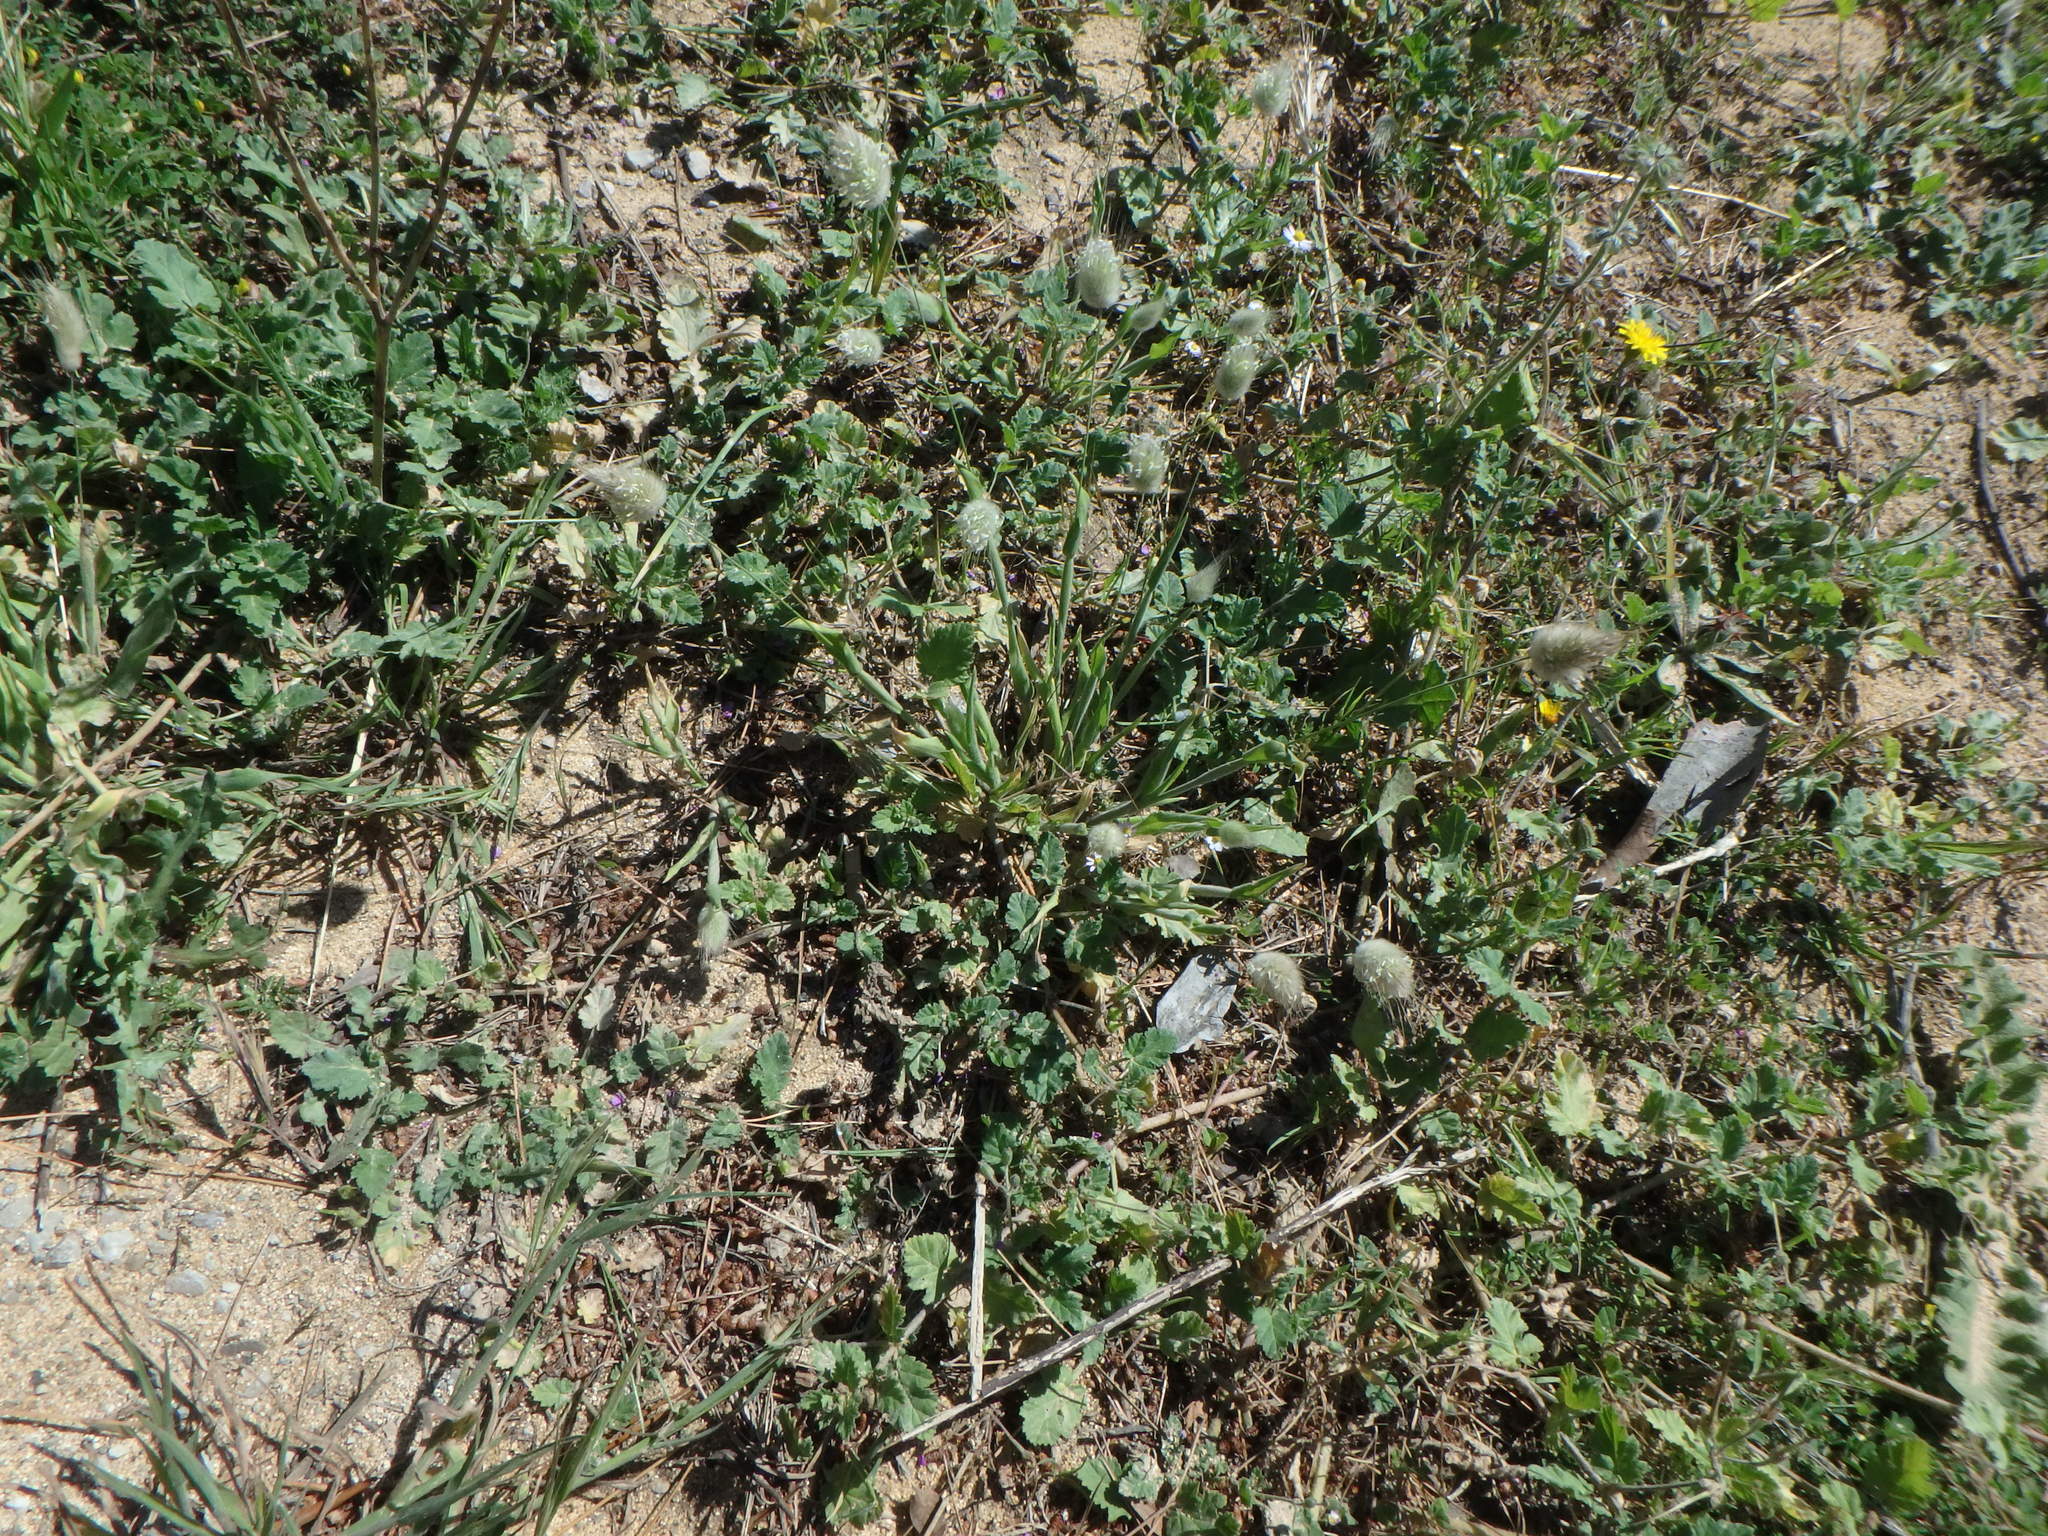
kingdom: Plantae
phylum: Tracheophyta
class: Liliopsida
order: Poales
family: Poaceae
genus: Lagurus
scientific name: Lagurus ovatus
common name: Hare's-tail
